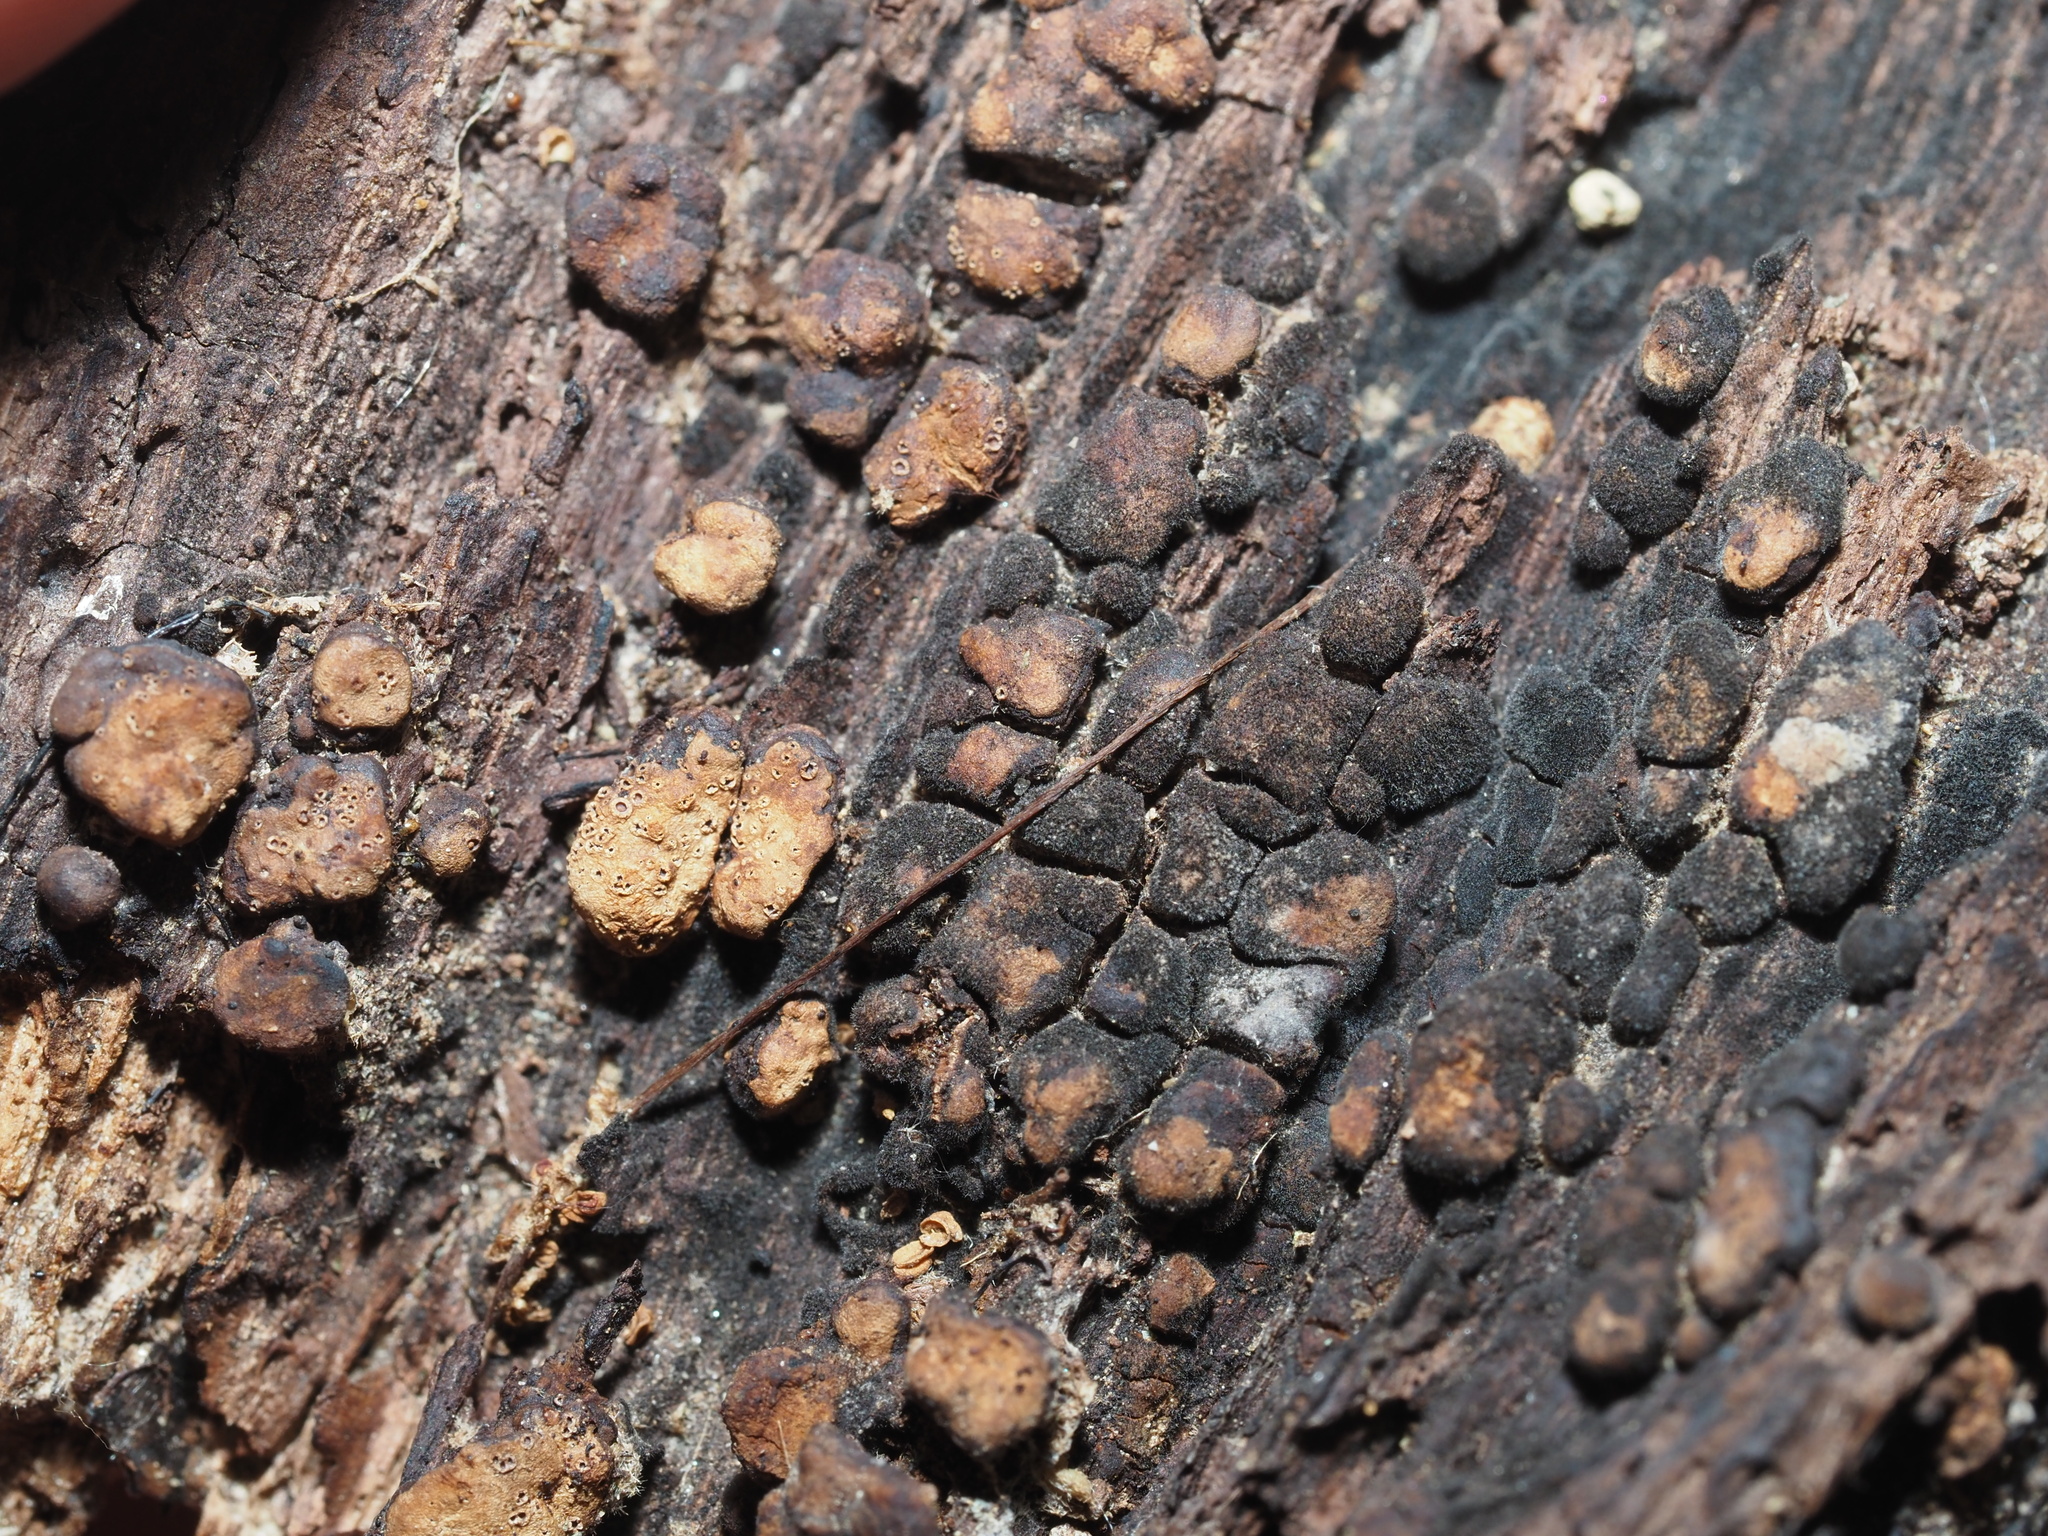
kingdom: Fungi
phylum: Basidiomycota
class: Agaricomycetes
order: Russulales
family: Stereaceae
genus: Xylobolus
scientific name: Xylobolus frustulatus
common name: Ceramic parchment
